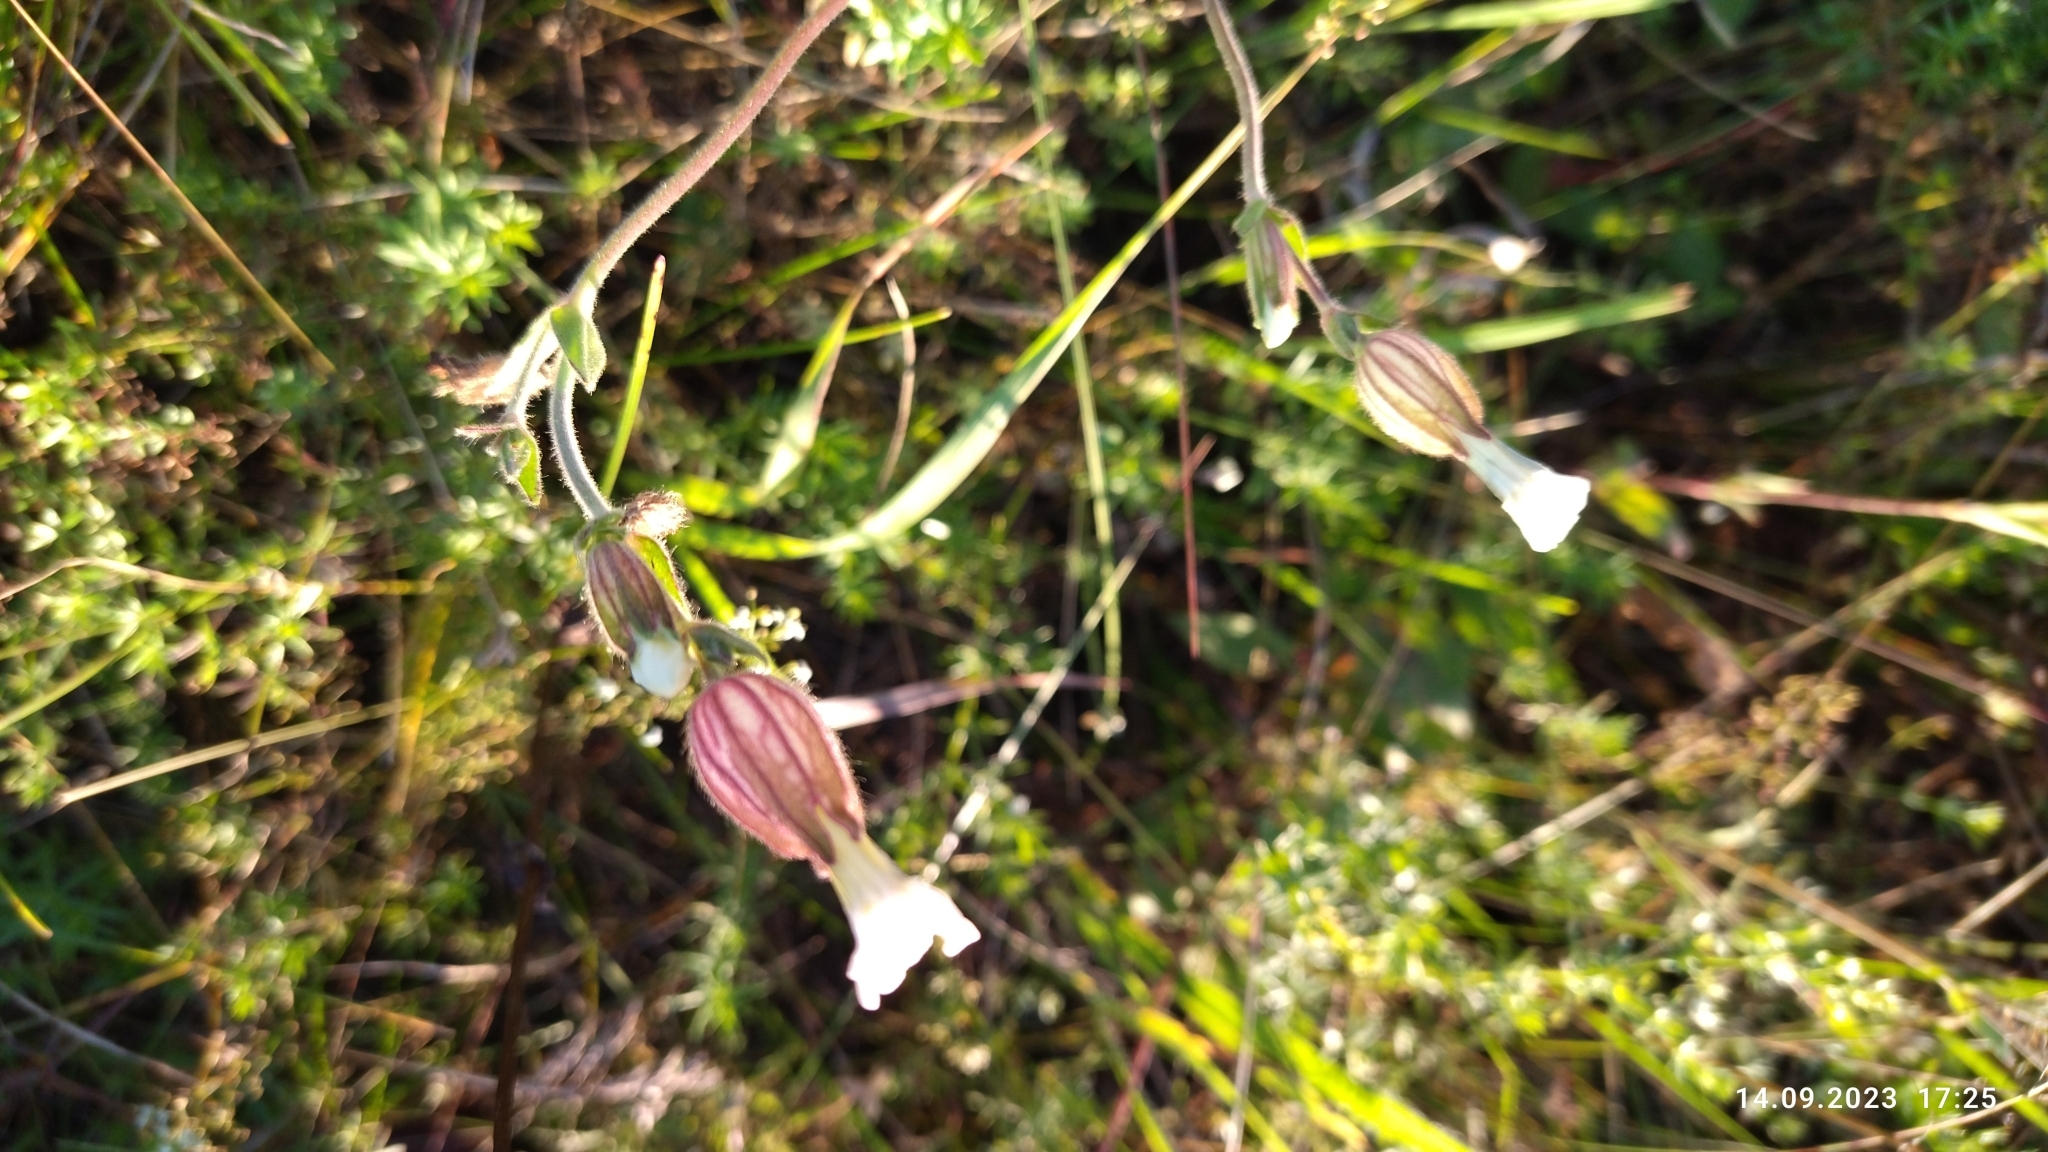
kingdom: Plantae
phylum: Tracheophyta
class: Magnoliopsida
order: Caryophyllales
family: Caryophyllaceae
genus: Silene
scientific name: Silene latifolia
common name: White campion
